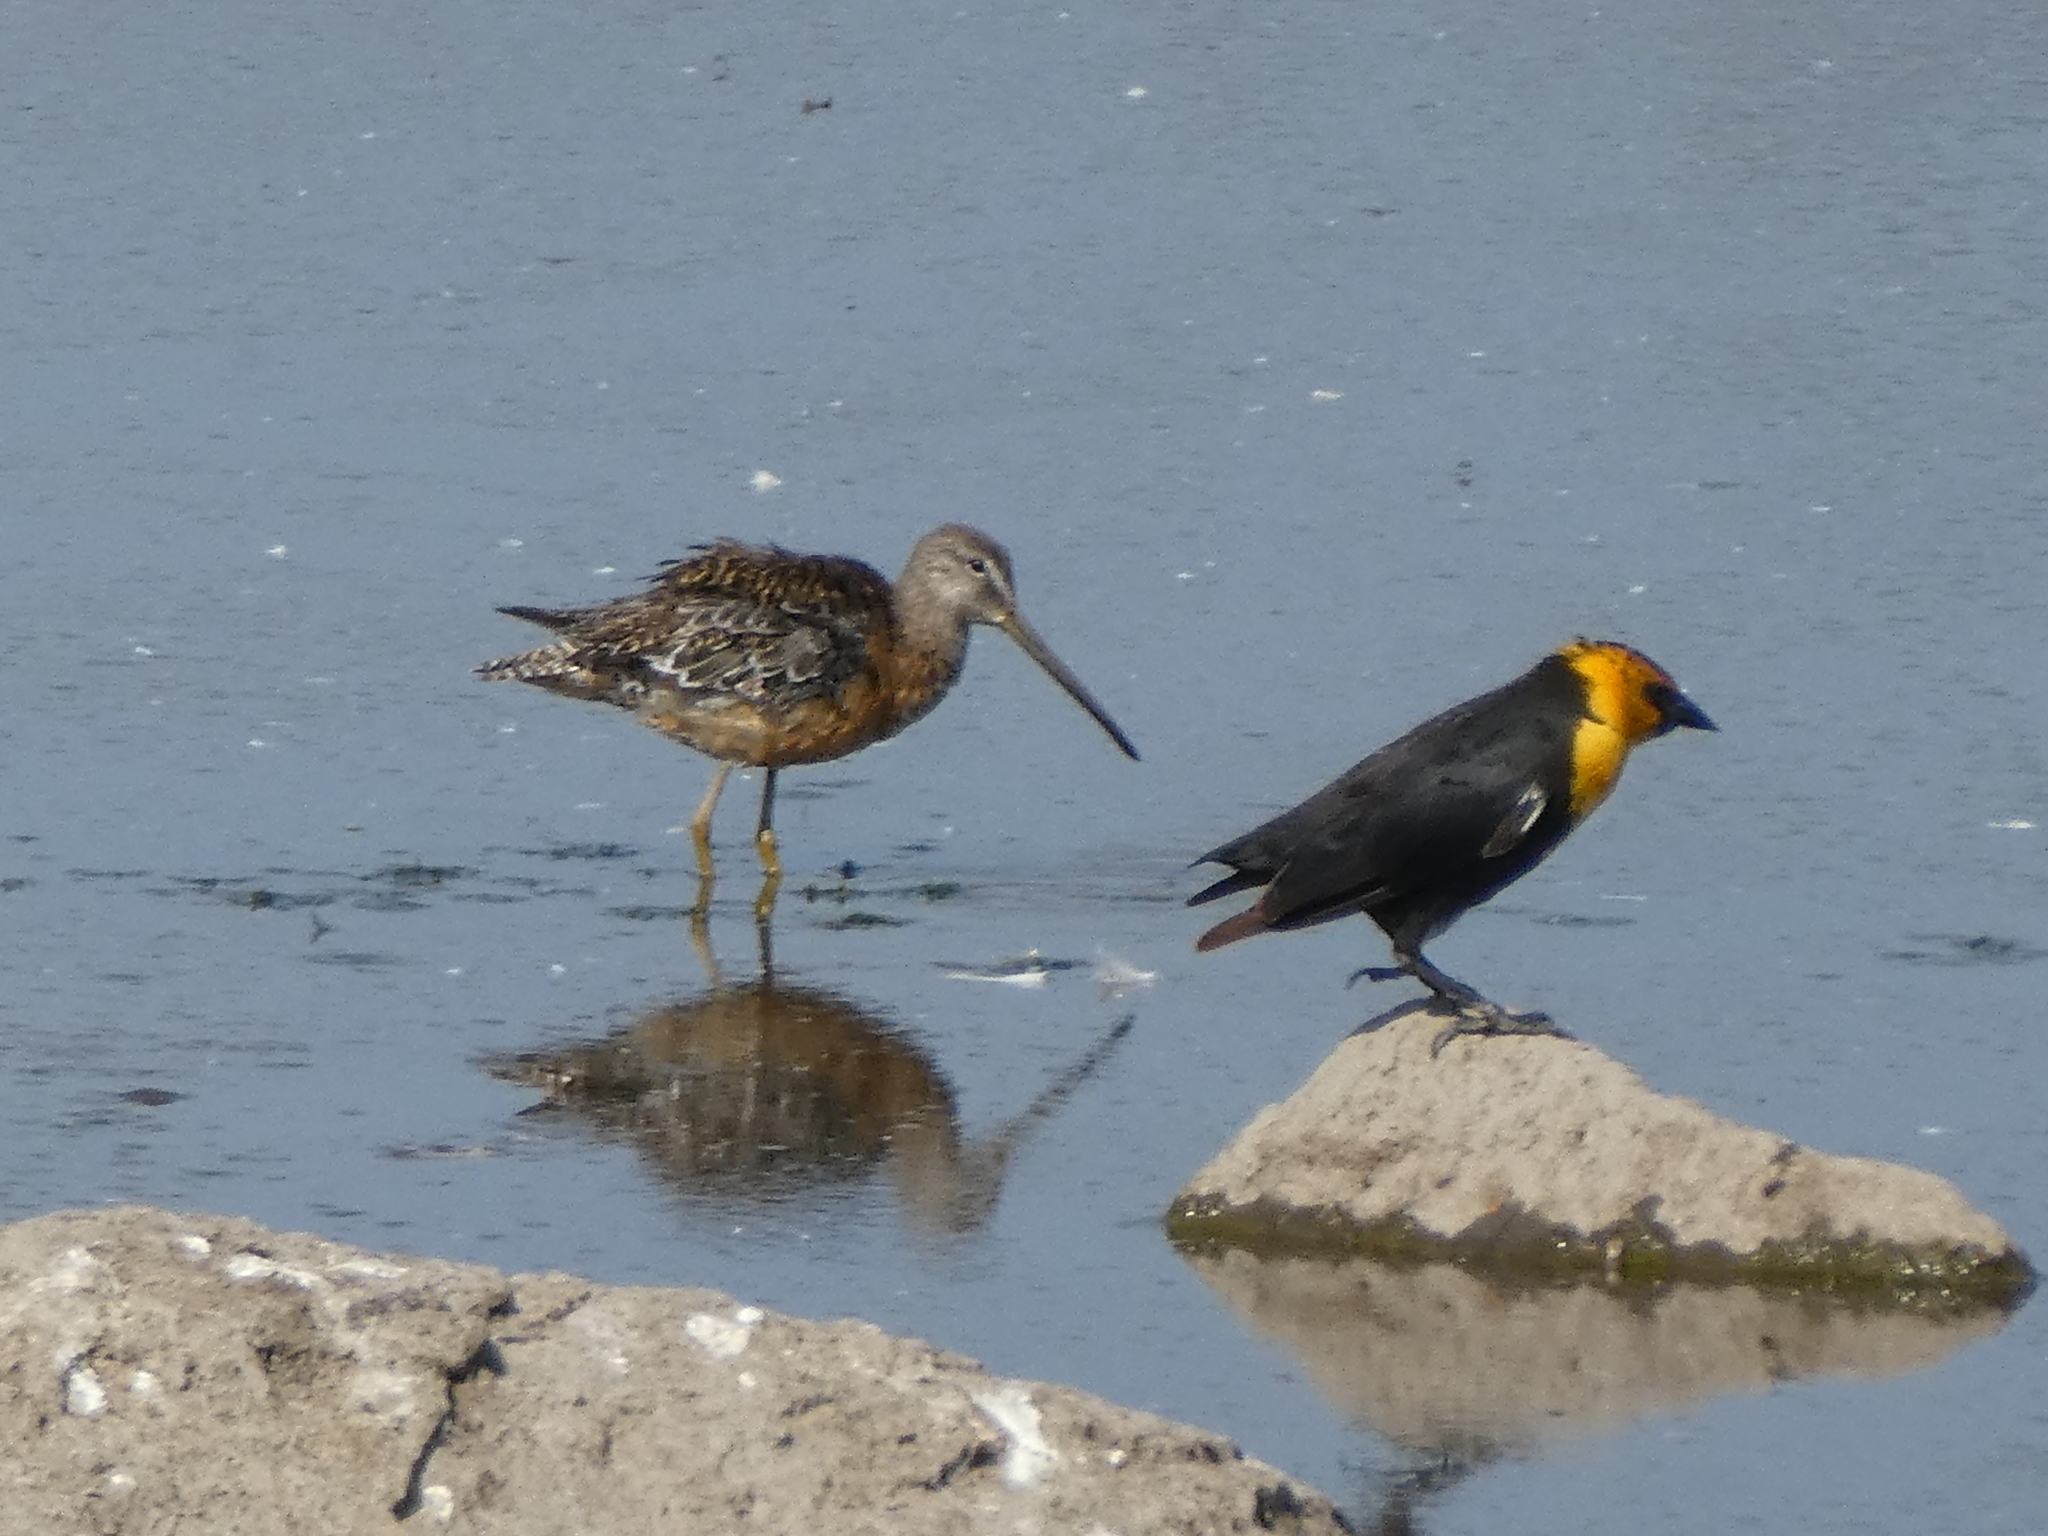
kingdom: Animalia
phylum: Chordata
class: Aves
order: Passeriformes
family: Icteridae
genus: Xanthocephalus
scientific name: Xanthocephalus xanthocephalus
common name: Yellow-headed blackbird
